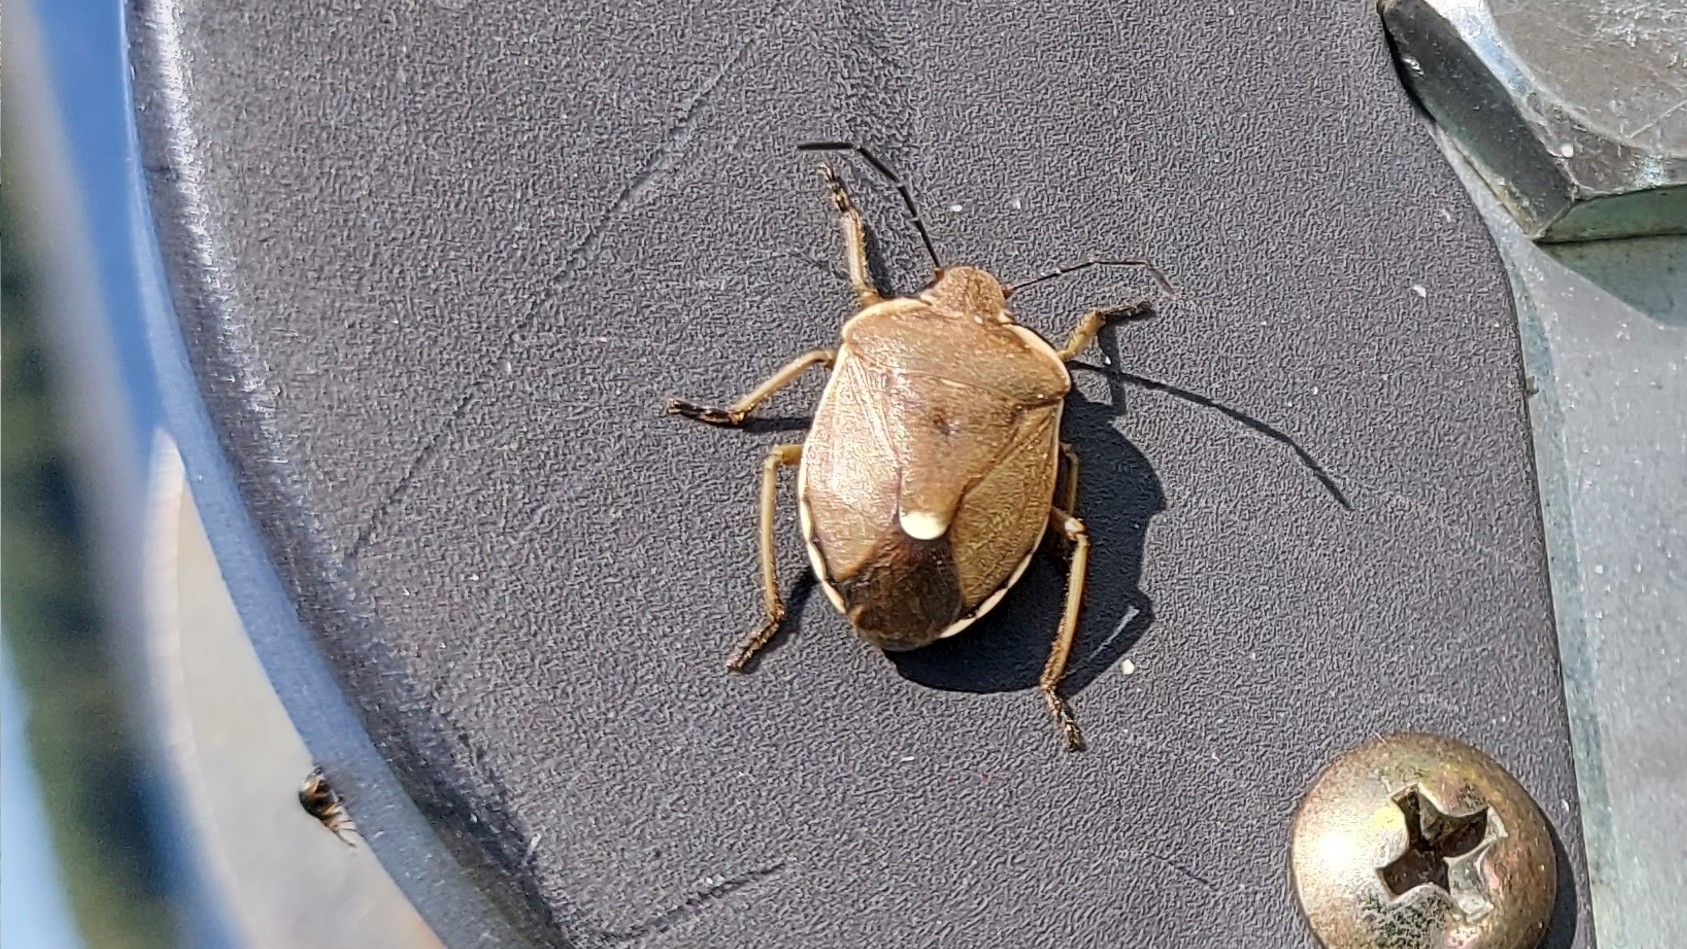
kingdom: Animalia
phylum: Arthropoda
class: Insecta
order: Hemiptera
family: Pentatomidae
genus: Chlorochroa
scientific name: Chlorochroa pinicola
